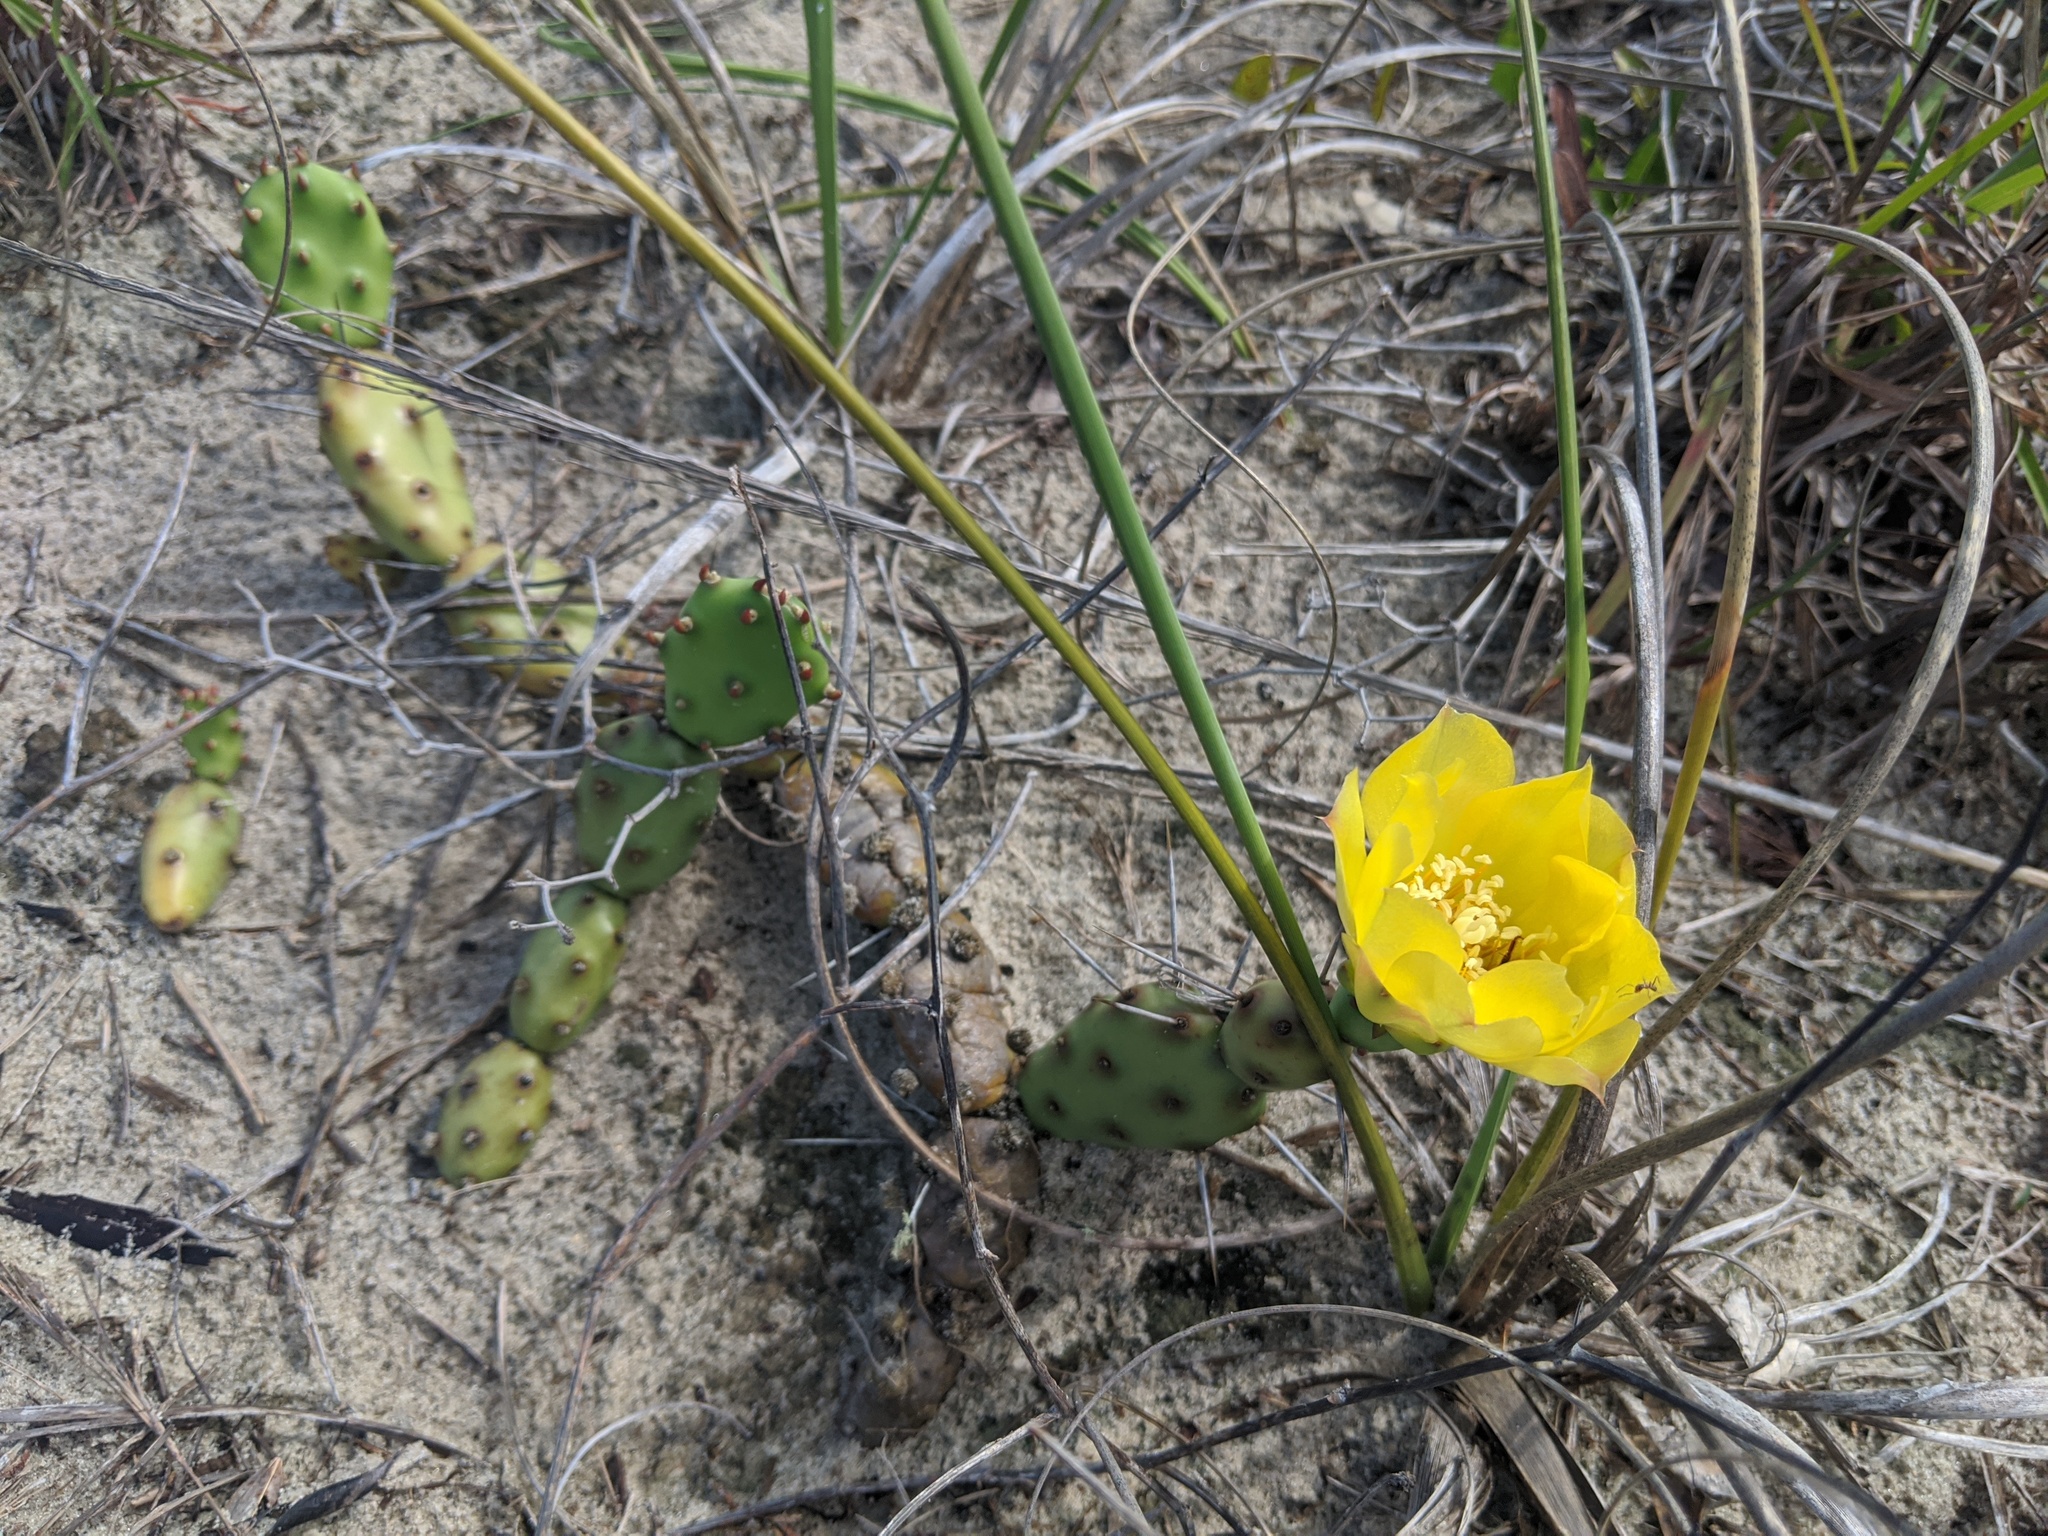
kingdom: Plantae
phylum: Tracheophyta
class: Magnoliopsida
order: Caryophyllales
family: Cactaceae
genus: Opuntia
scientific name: Opuntia drummondii
